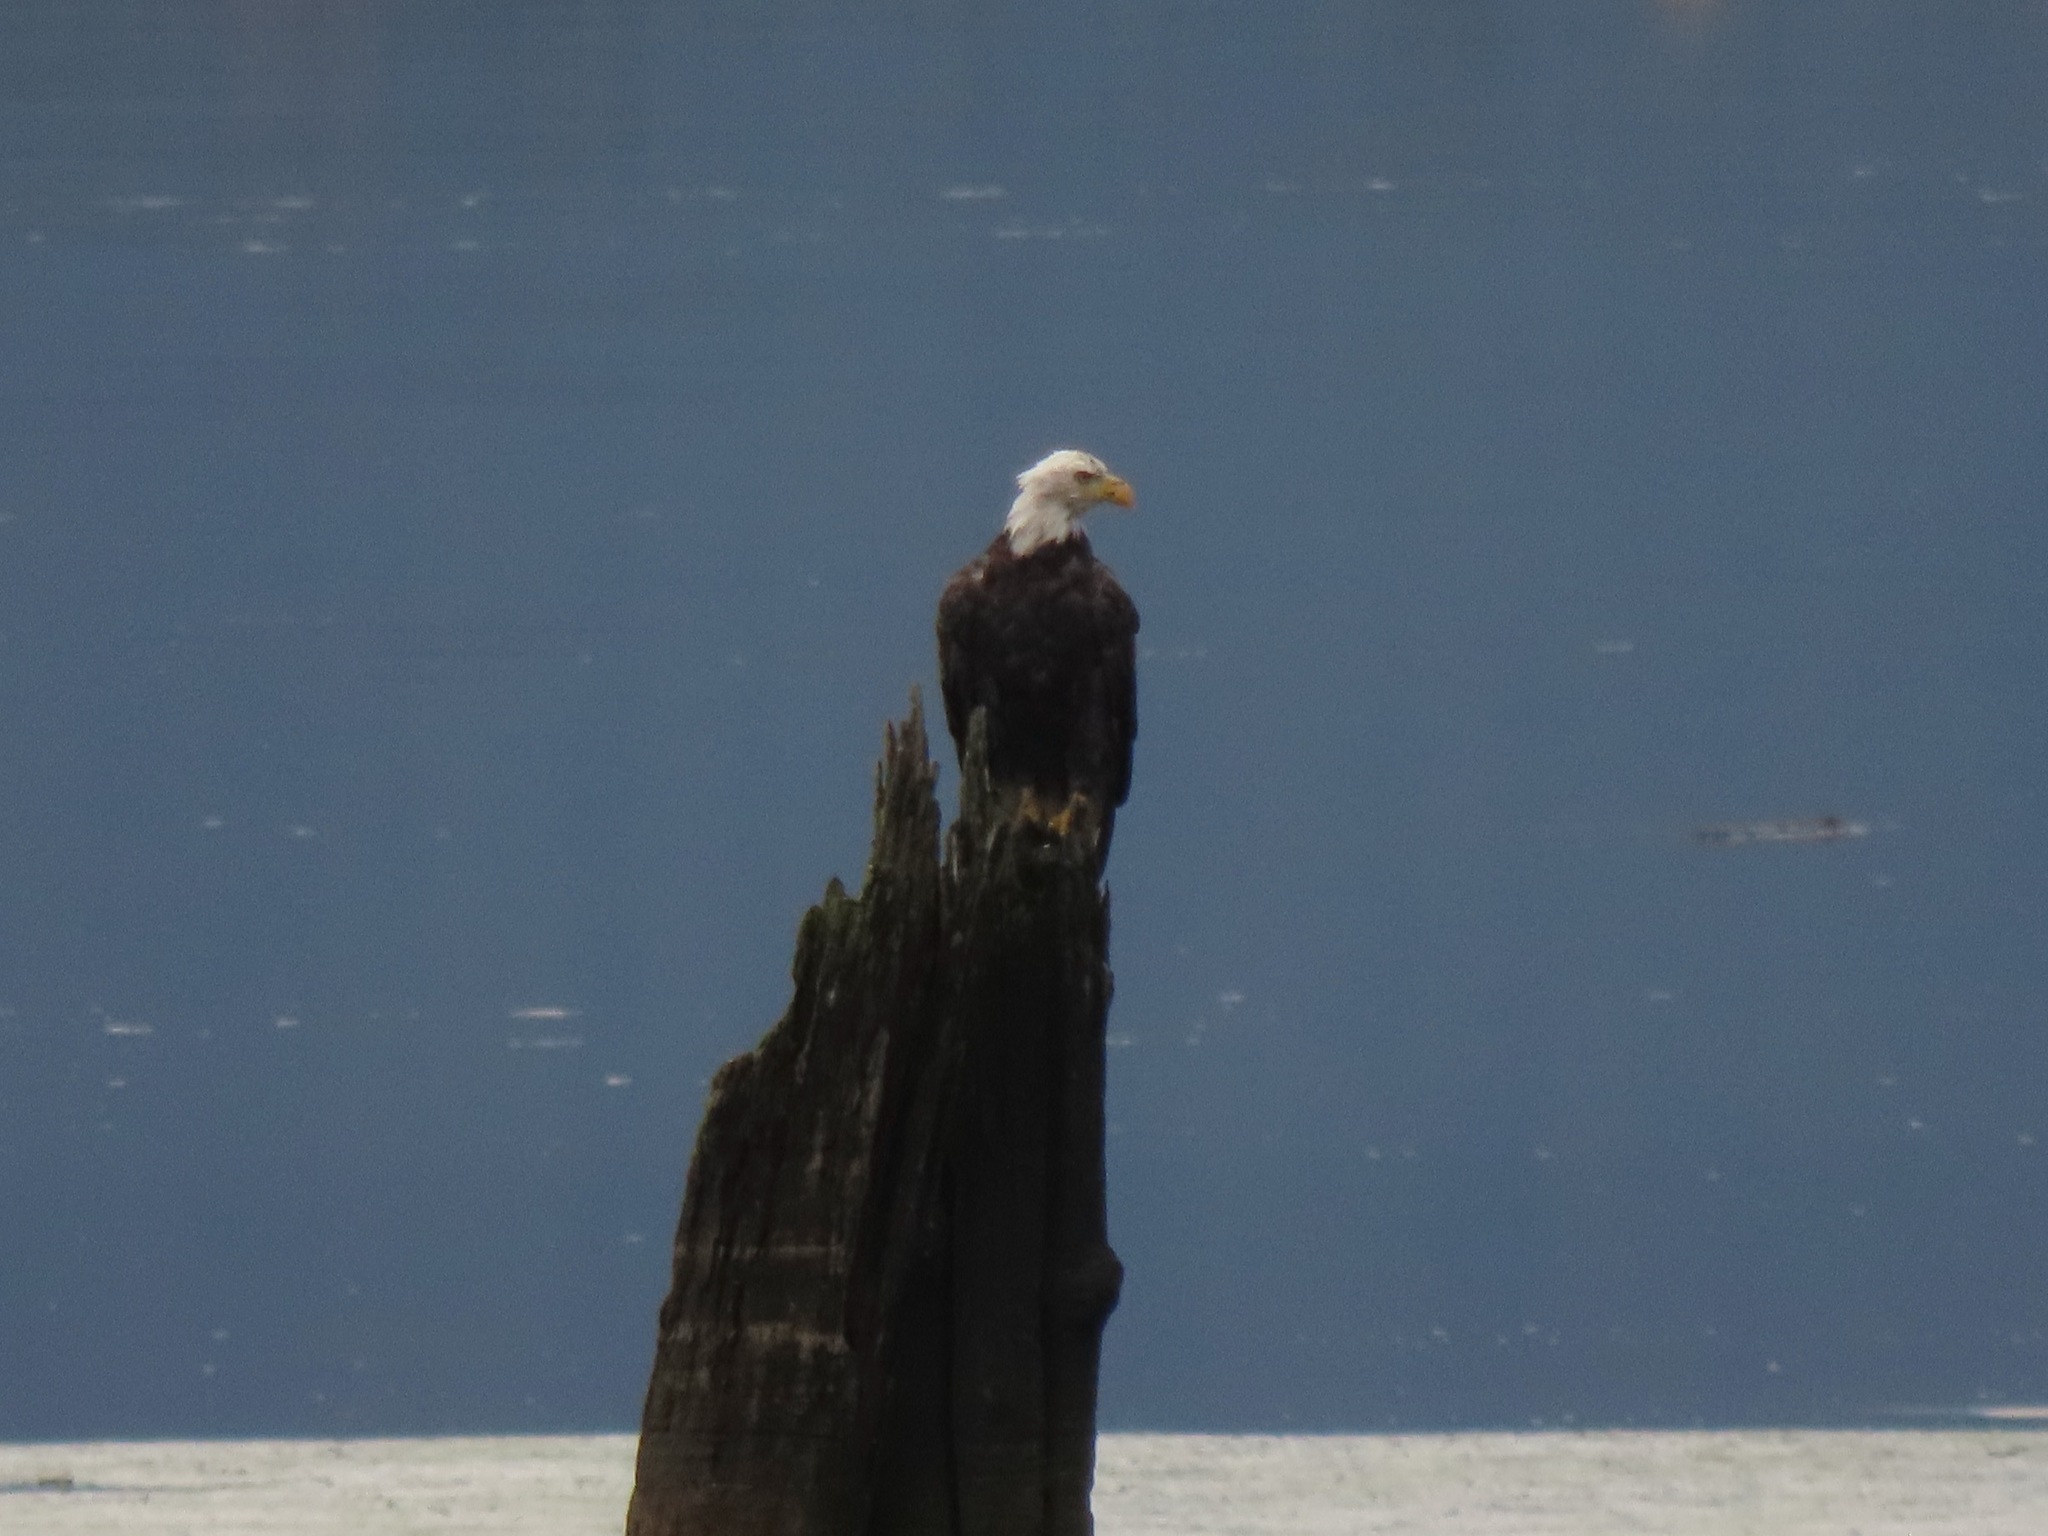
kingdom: Animalia
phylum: Chordata
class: Aves
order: Accipitriformes
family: Accipitridae
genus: Haliaeetus
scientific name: Haliaeetus leucocephalus
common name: Bald eagle
